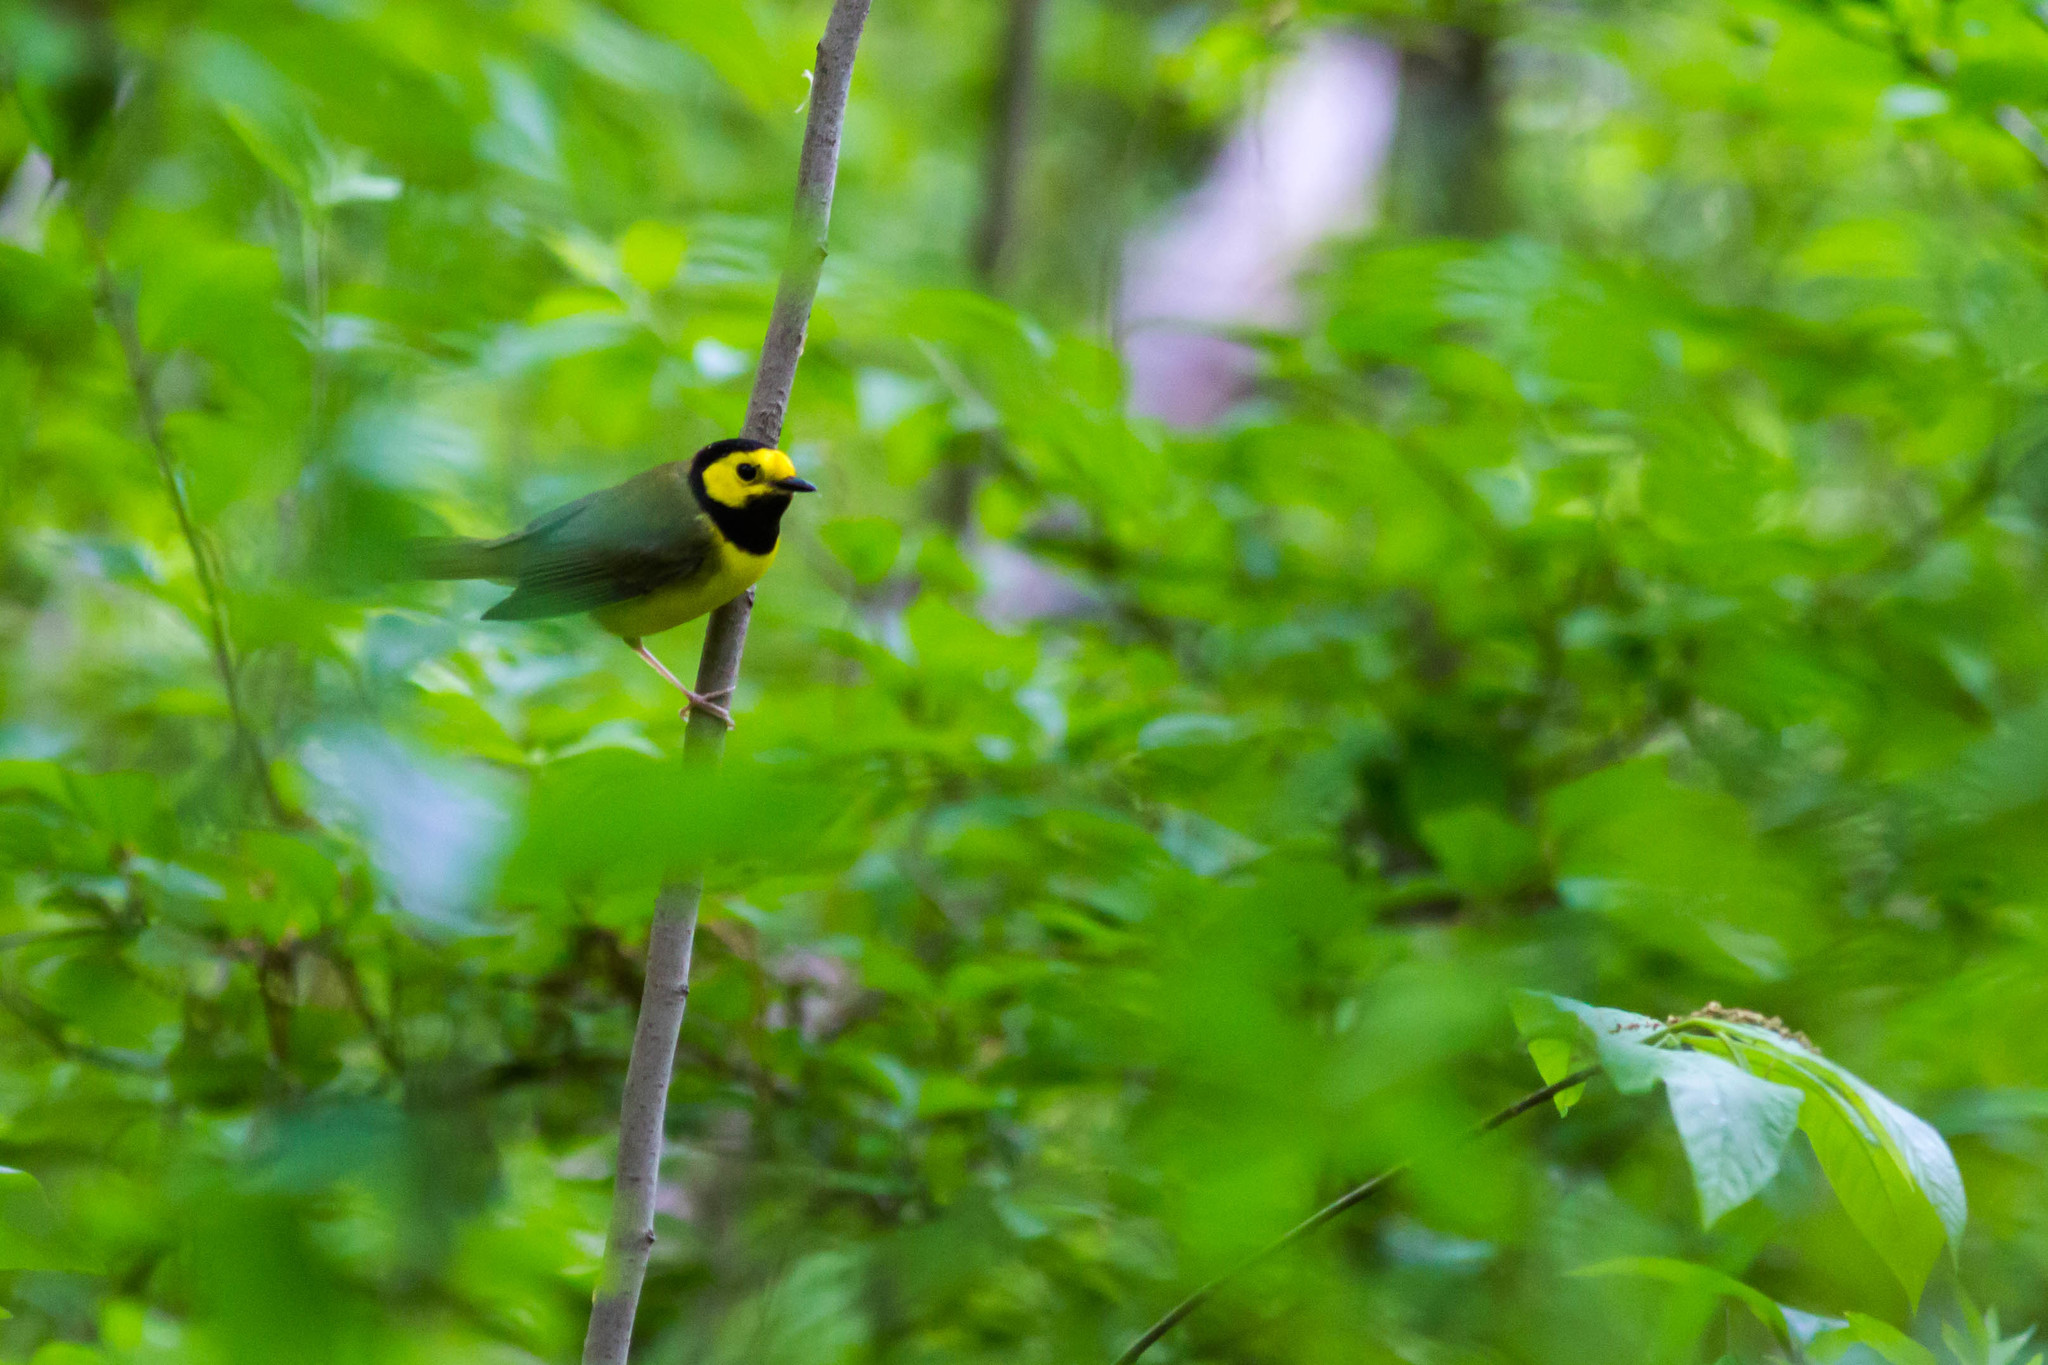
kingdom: Animalia
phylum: Chordata
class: Aves
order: Passeriformes
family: Parulidae
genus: Setophaga
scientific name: Setophaga citrina
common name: Hooded warbler
